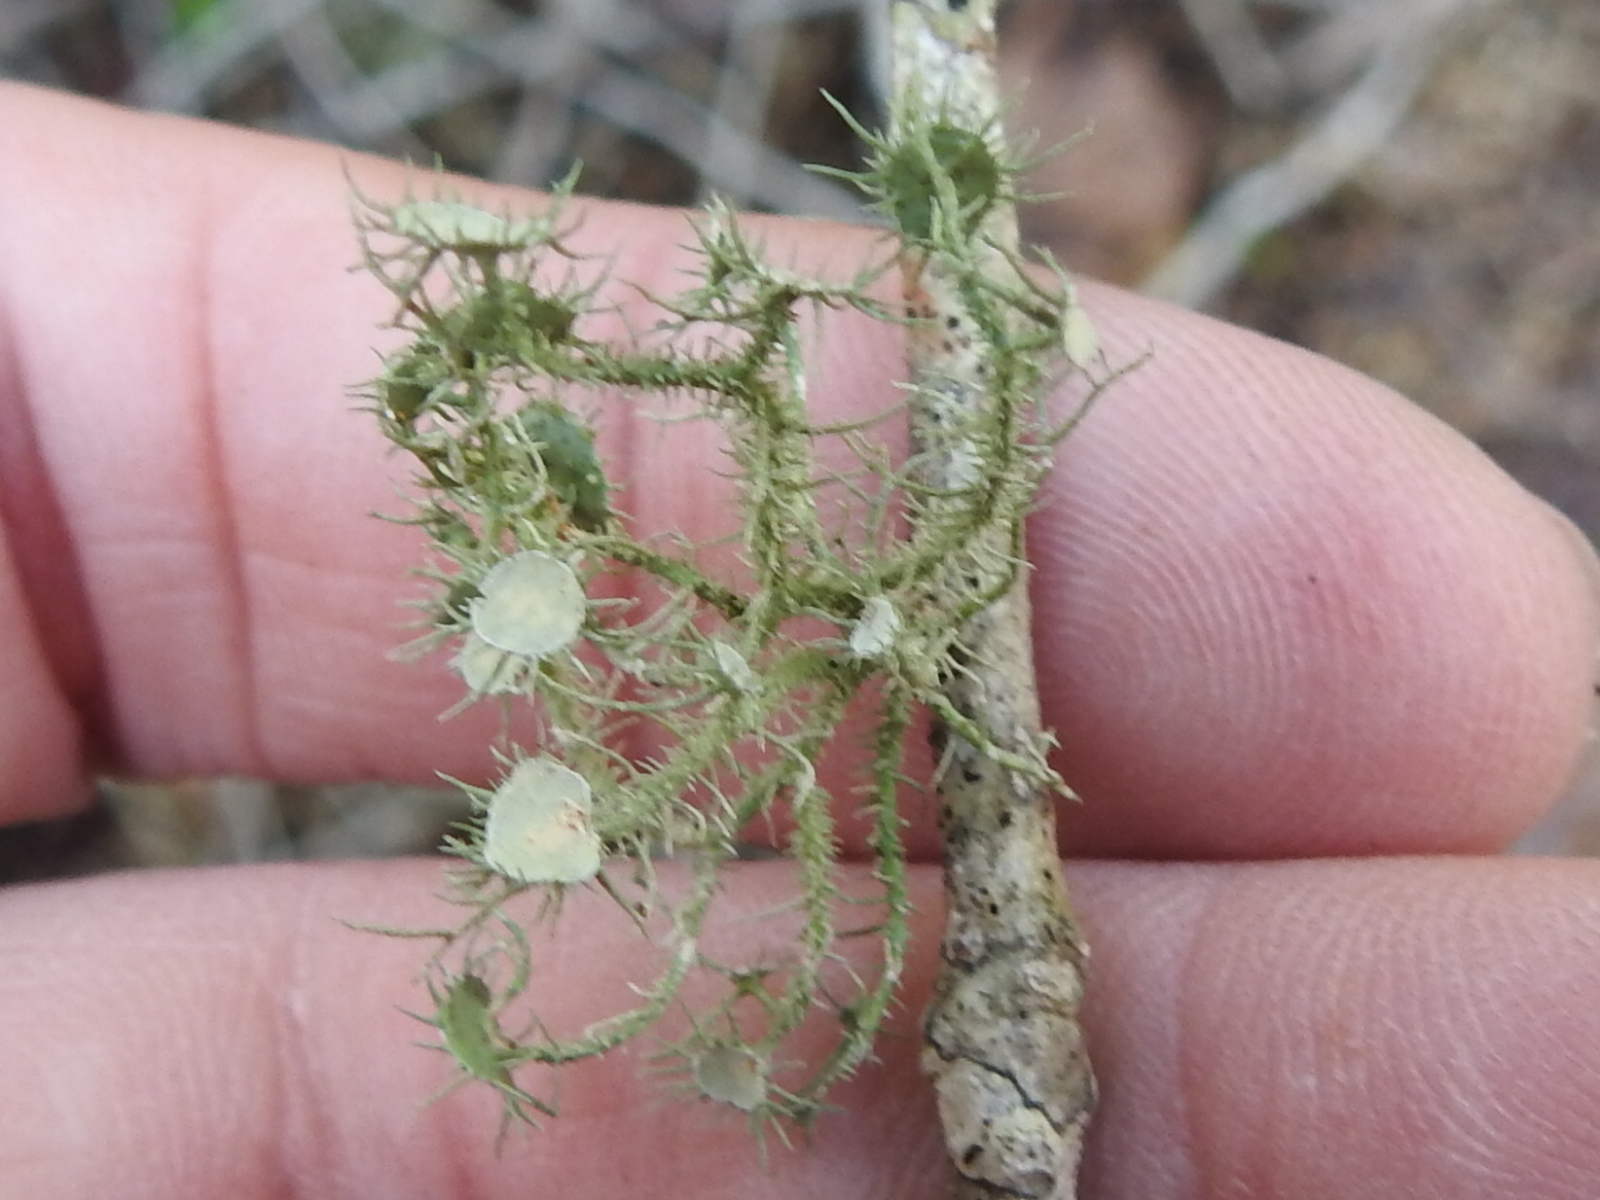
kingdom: Fungi
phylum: Ascomycota
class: Lecanoromycetes
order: Lecanorales
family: Parmeliaceae
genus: Usnea
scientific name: Usnea strigosa
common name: Bushy beard lichen
